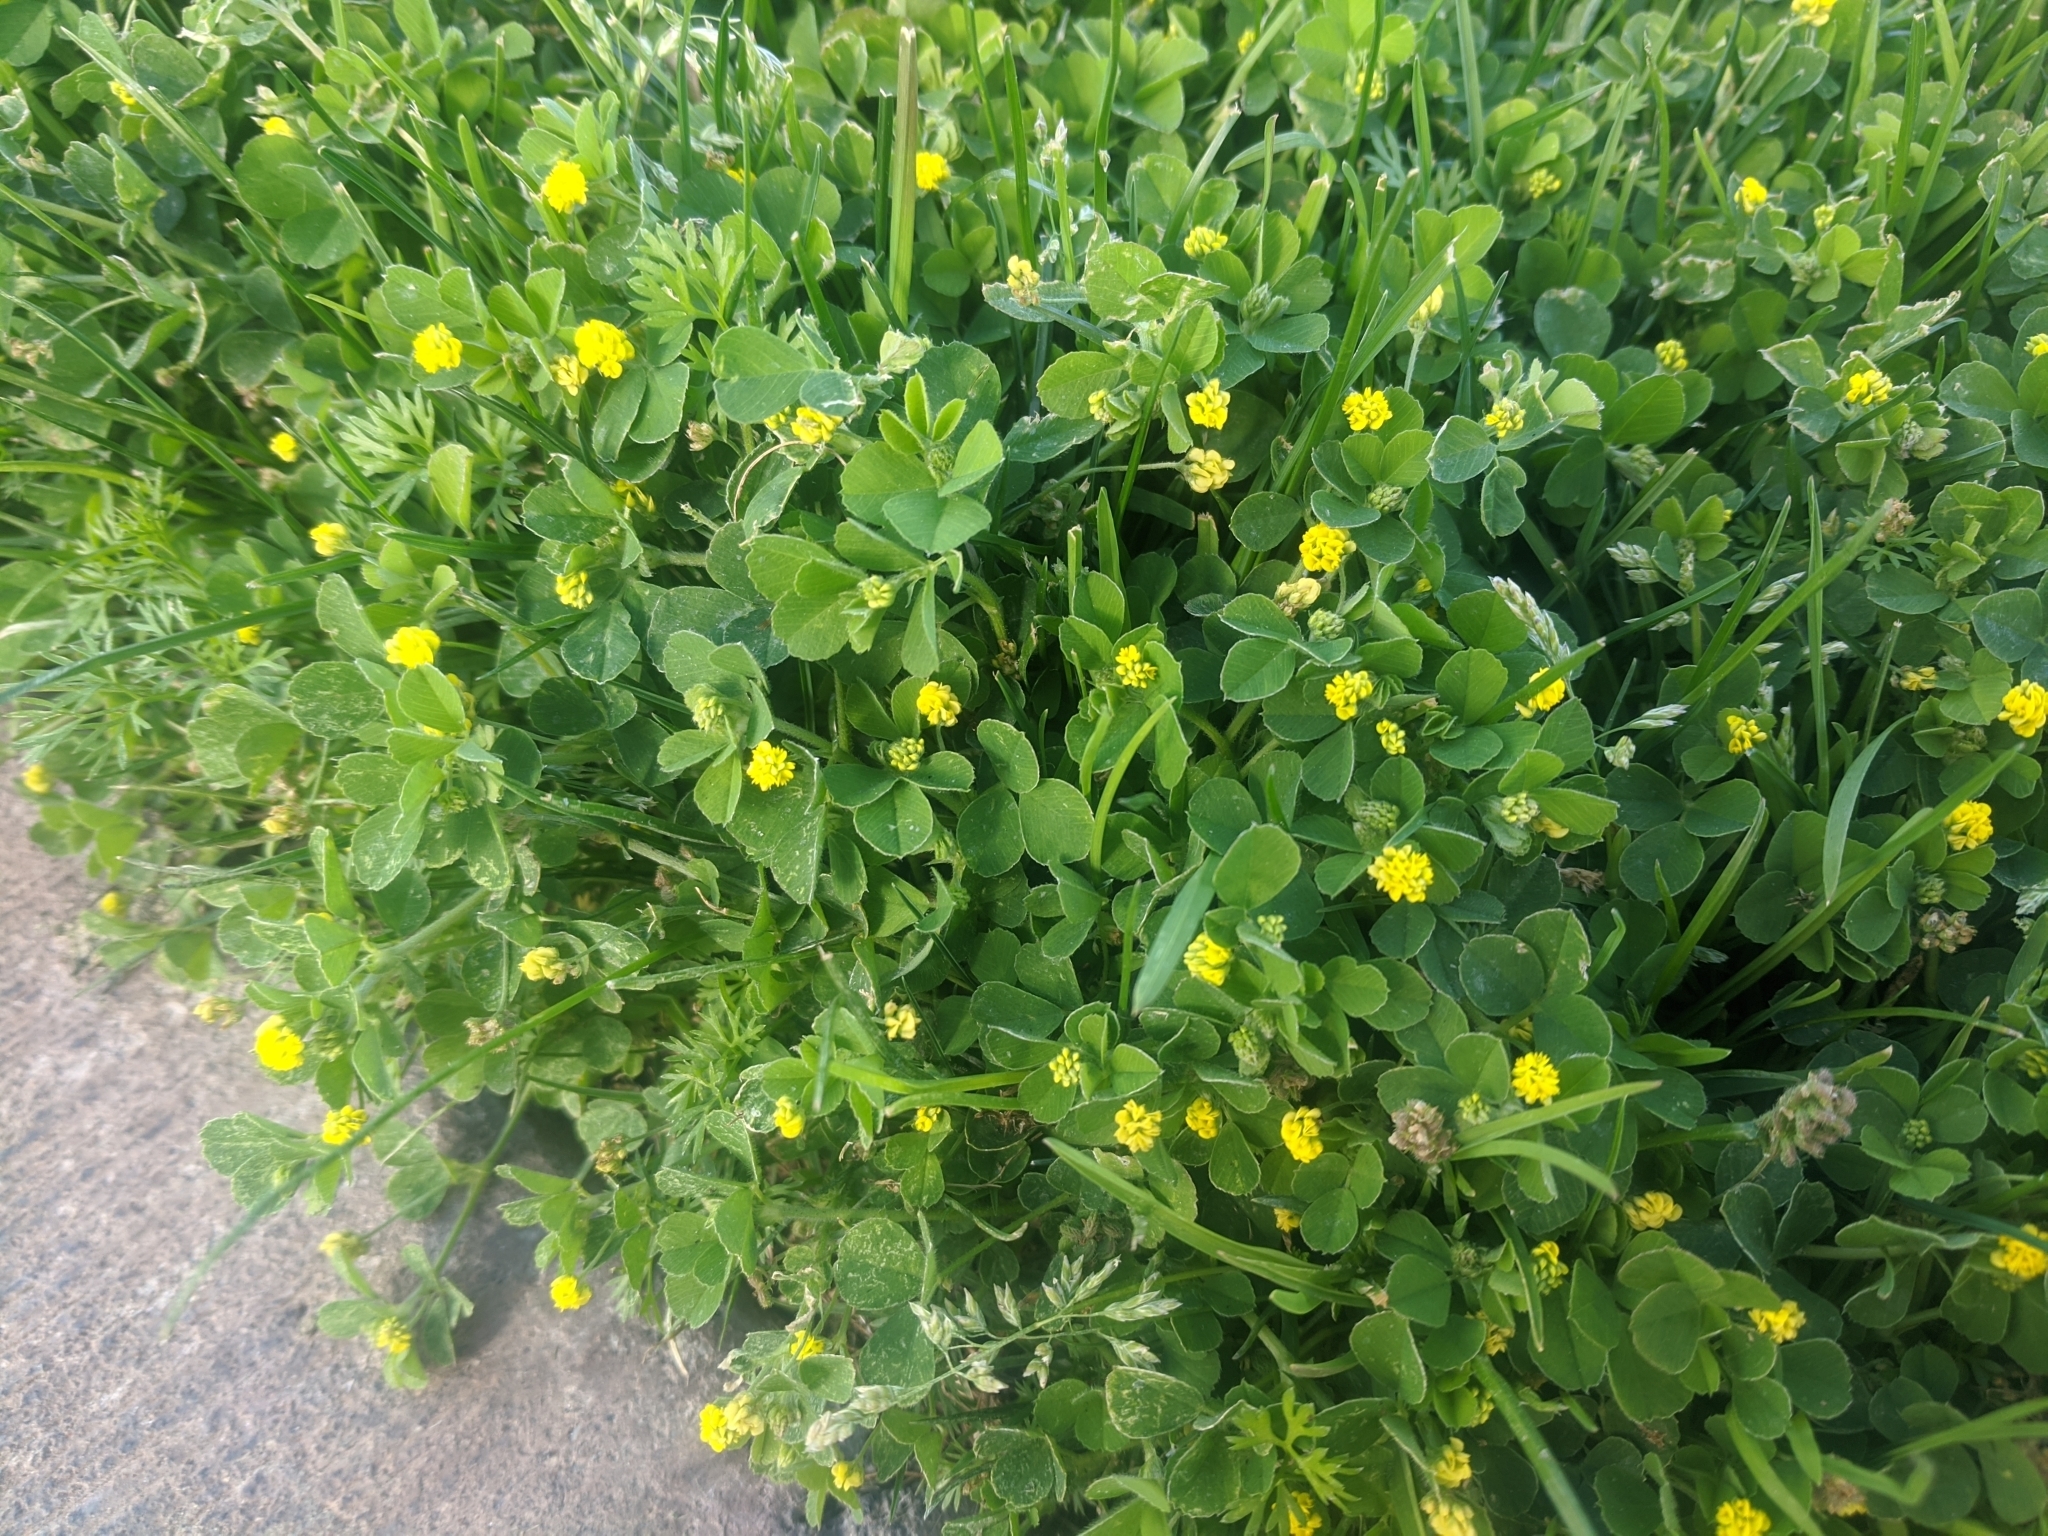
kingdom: Plantae
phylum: Tracheophyta
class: Magnoliopsida
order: Fabales
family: Fabaceae
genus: Medicago
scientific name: Medicago lupulina
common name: Black medick
